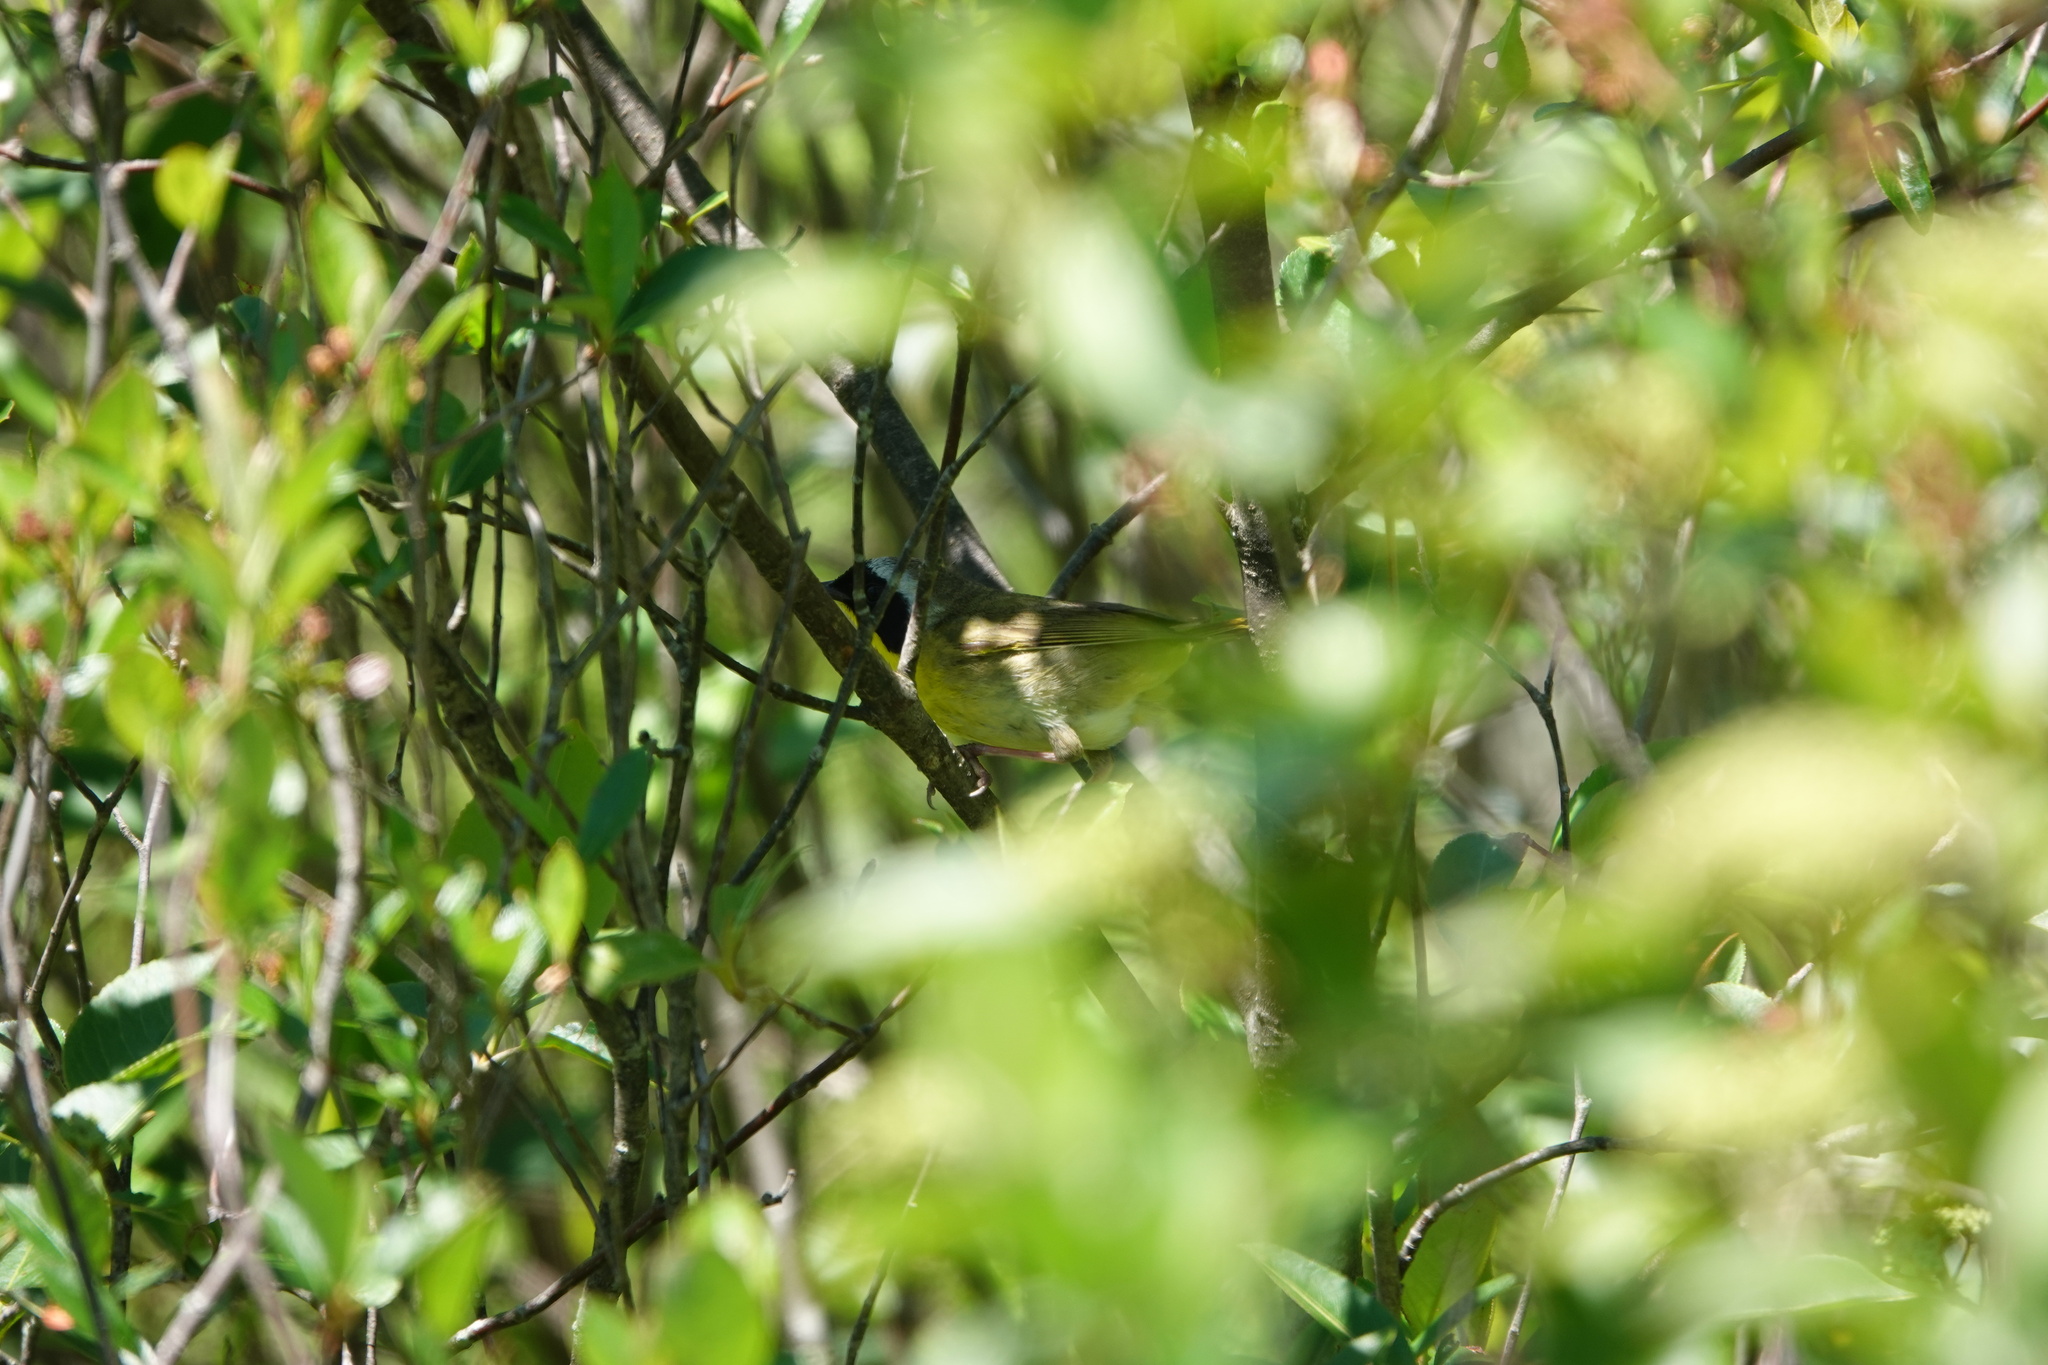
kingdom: Animalia
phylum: Chordata
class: Aves
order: Passeriformes
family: Parulidae
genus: Geothlypis
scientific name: Geothlypis trichas
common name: Common yellowthroat
